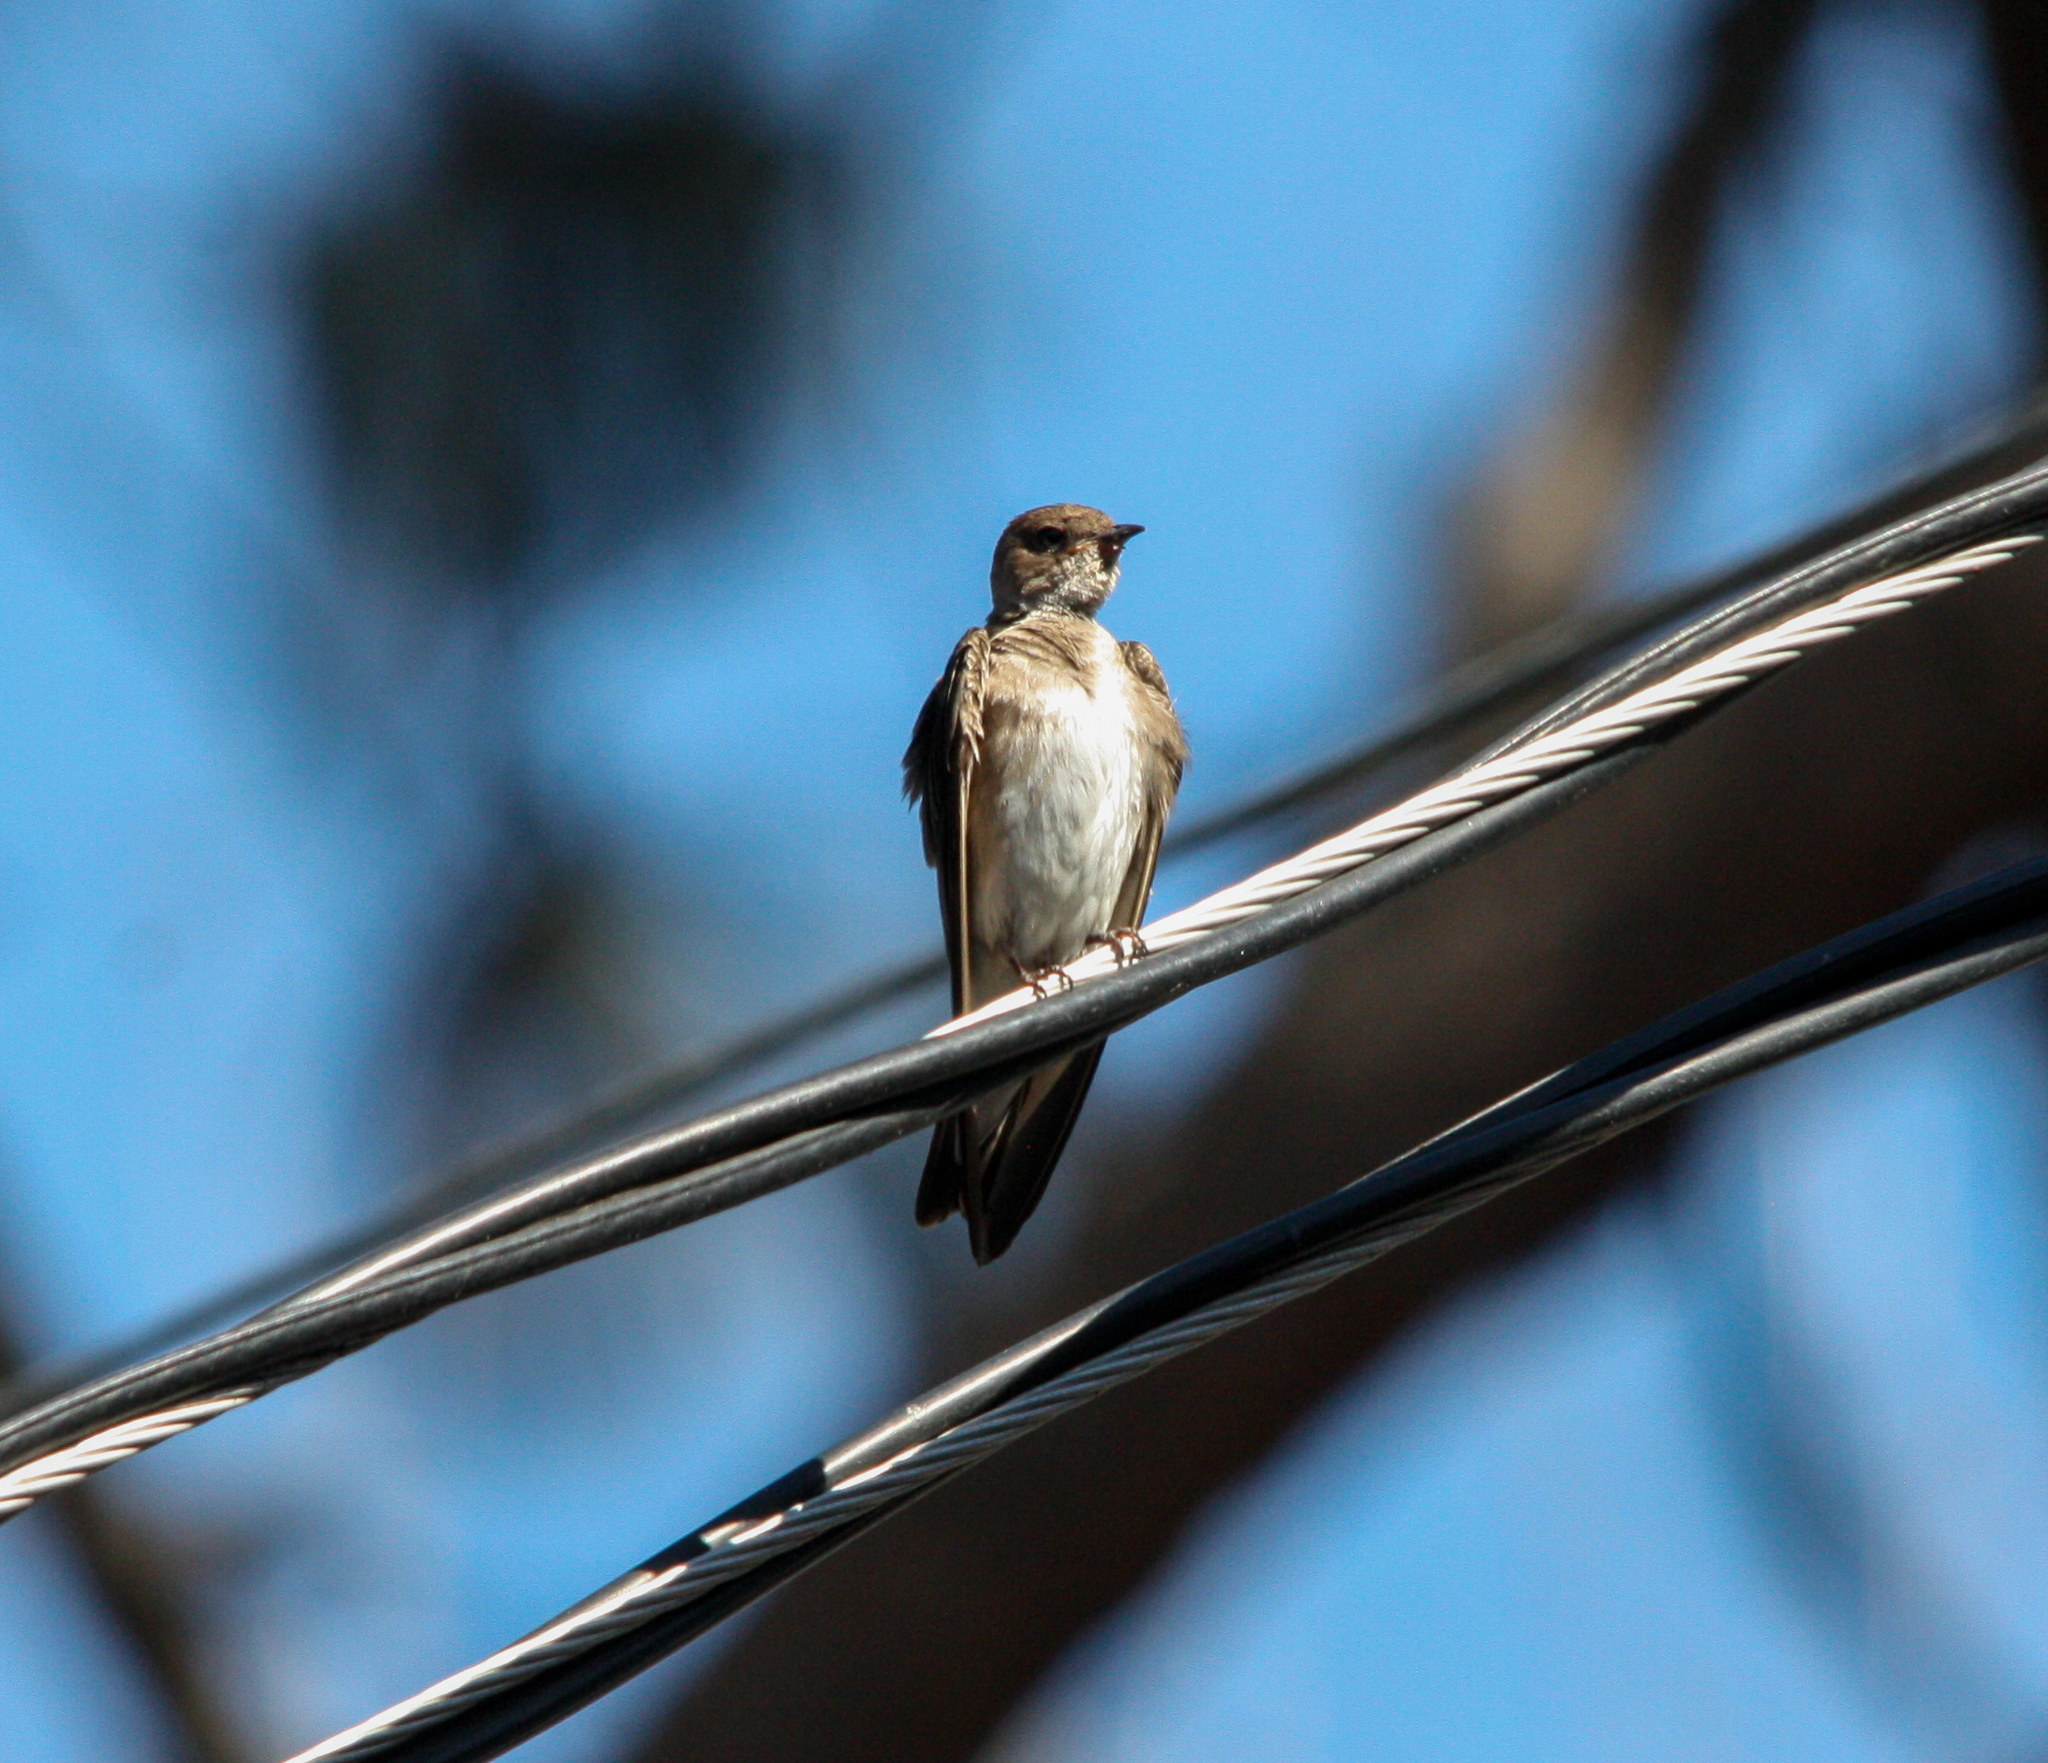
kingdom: Animalia
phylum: Chordata
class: Aves
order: Passeriformes
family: Hirundinidae
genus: Stelgidopteryx
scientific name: Stelgidopteryx serripennis
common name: Northern rough-winged swallow
